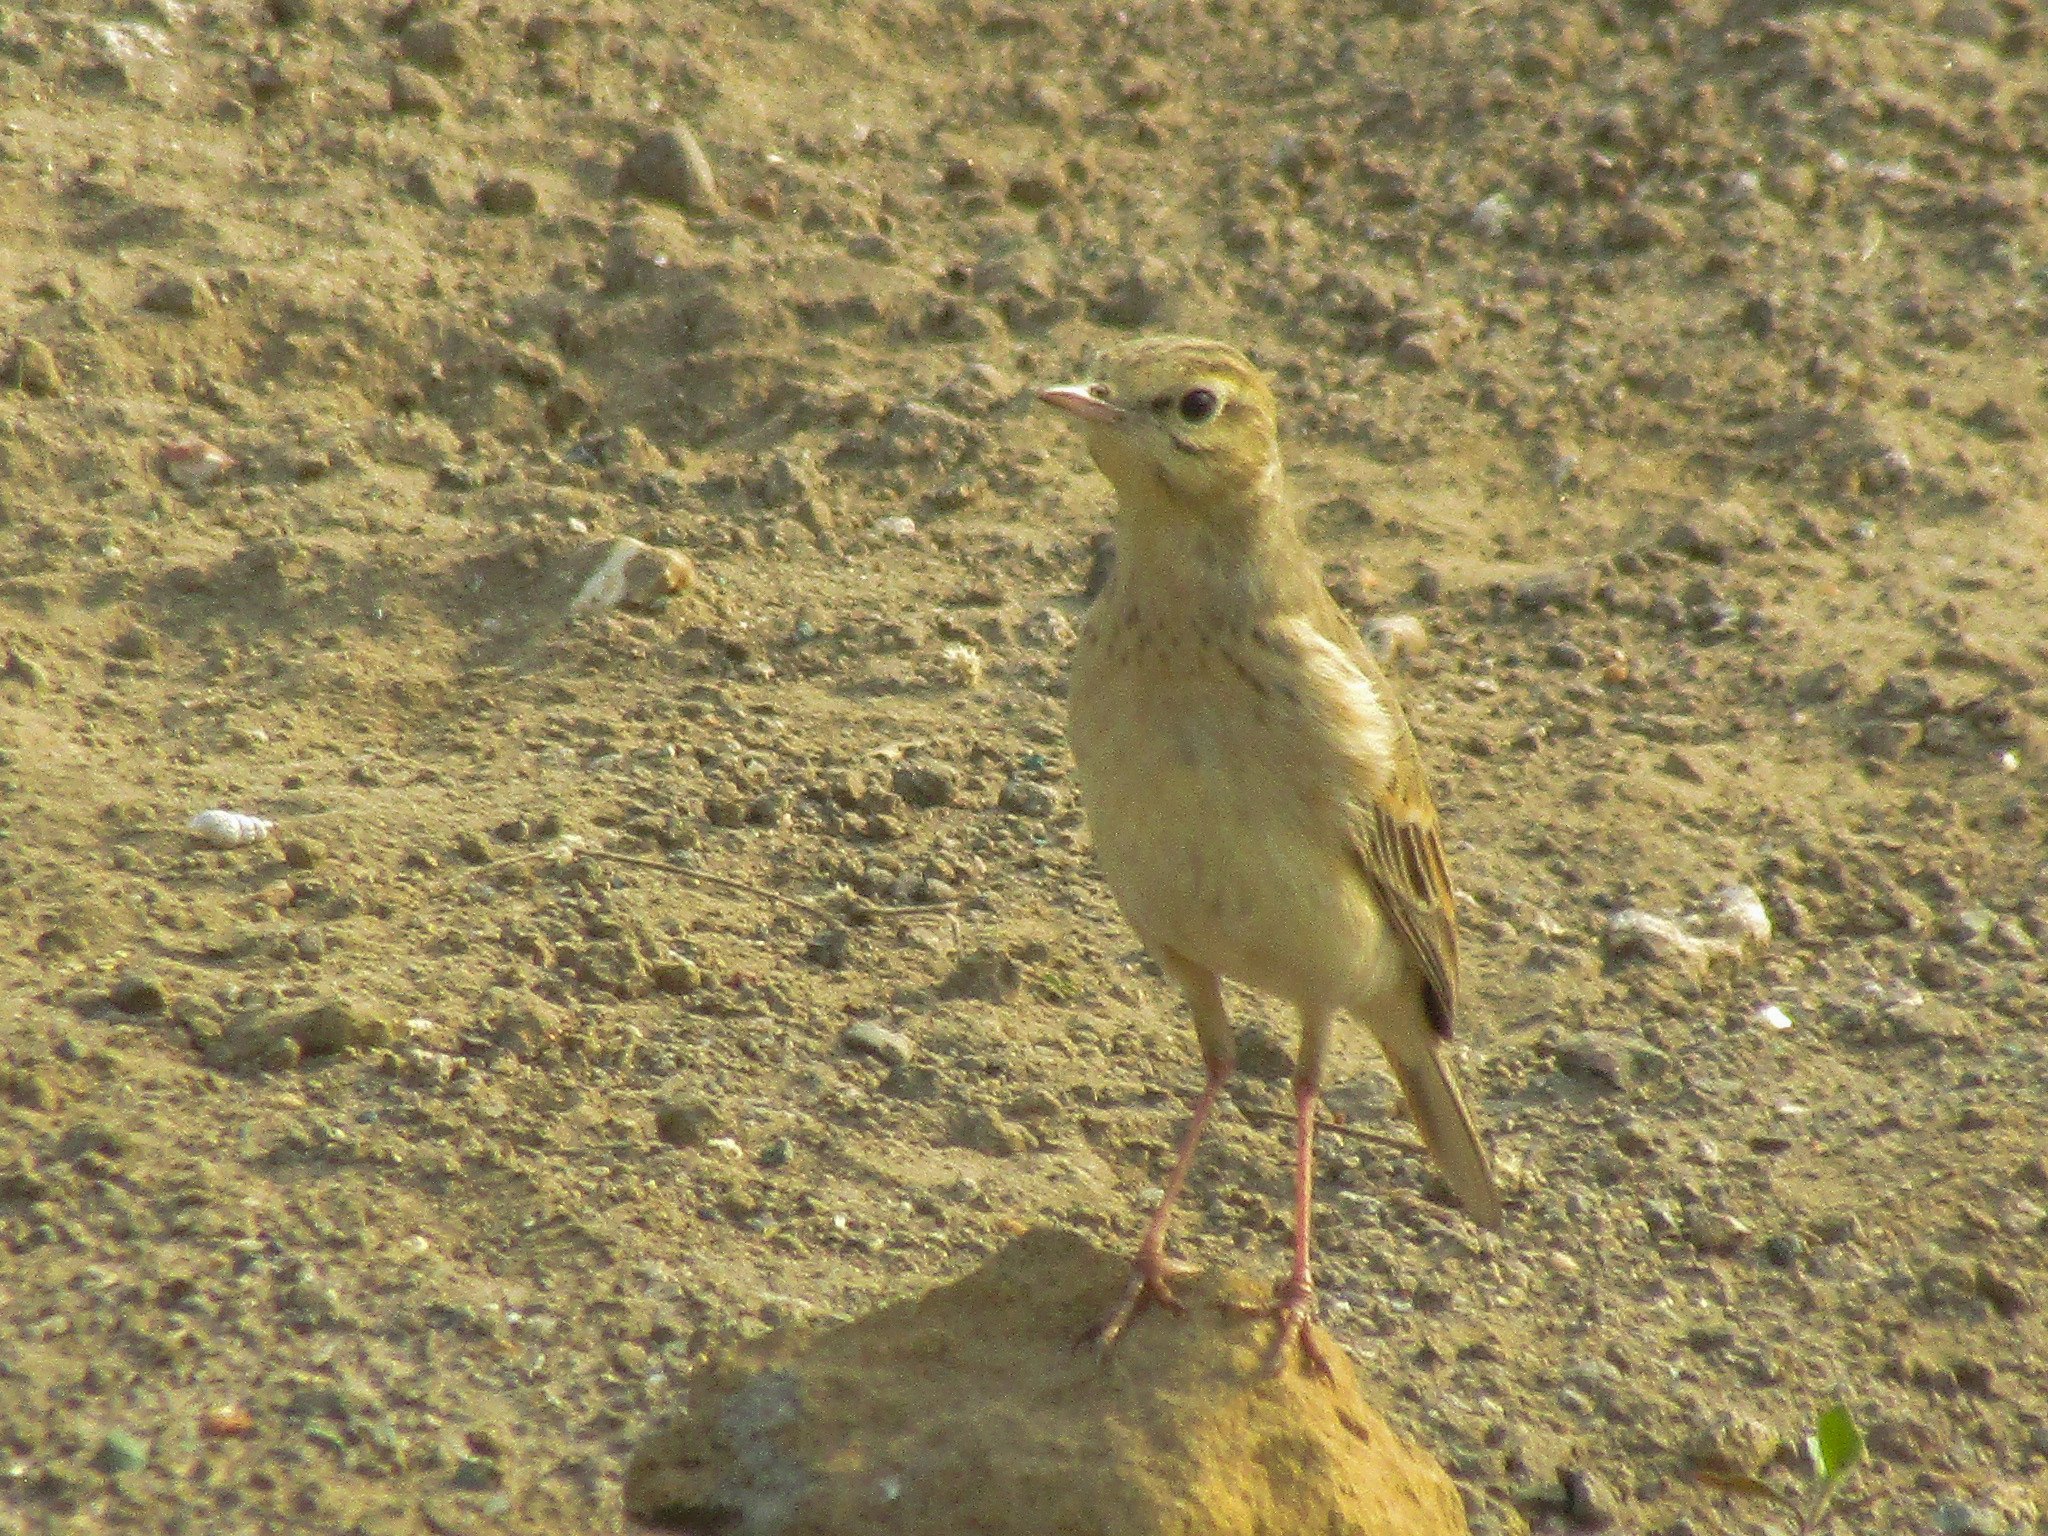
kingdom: Animalia
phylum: Chordata
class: Aves
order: Passeriformes
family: Motacillidae
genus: Anthus
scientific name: Anthus campestris
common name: Tawny pipit
